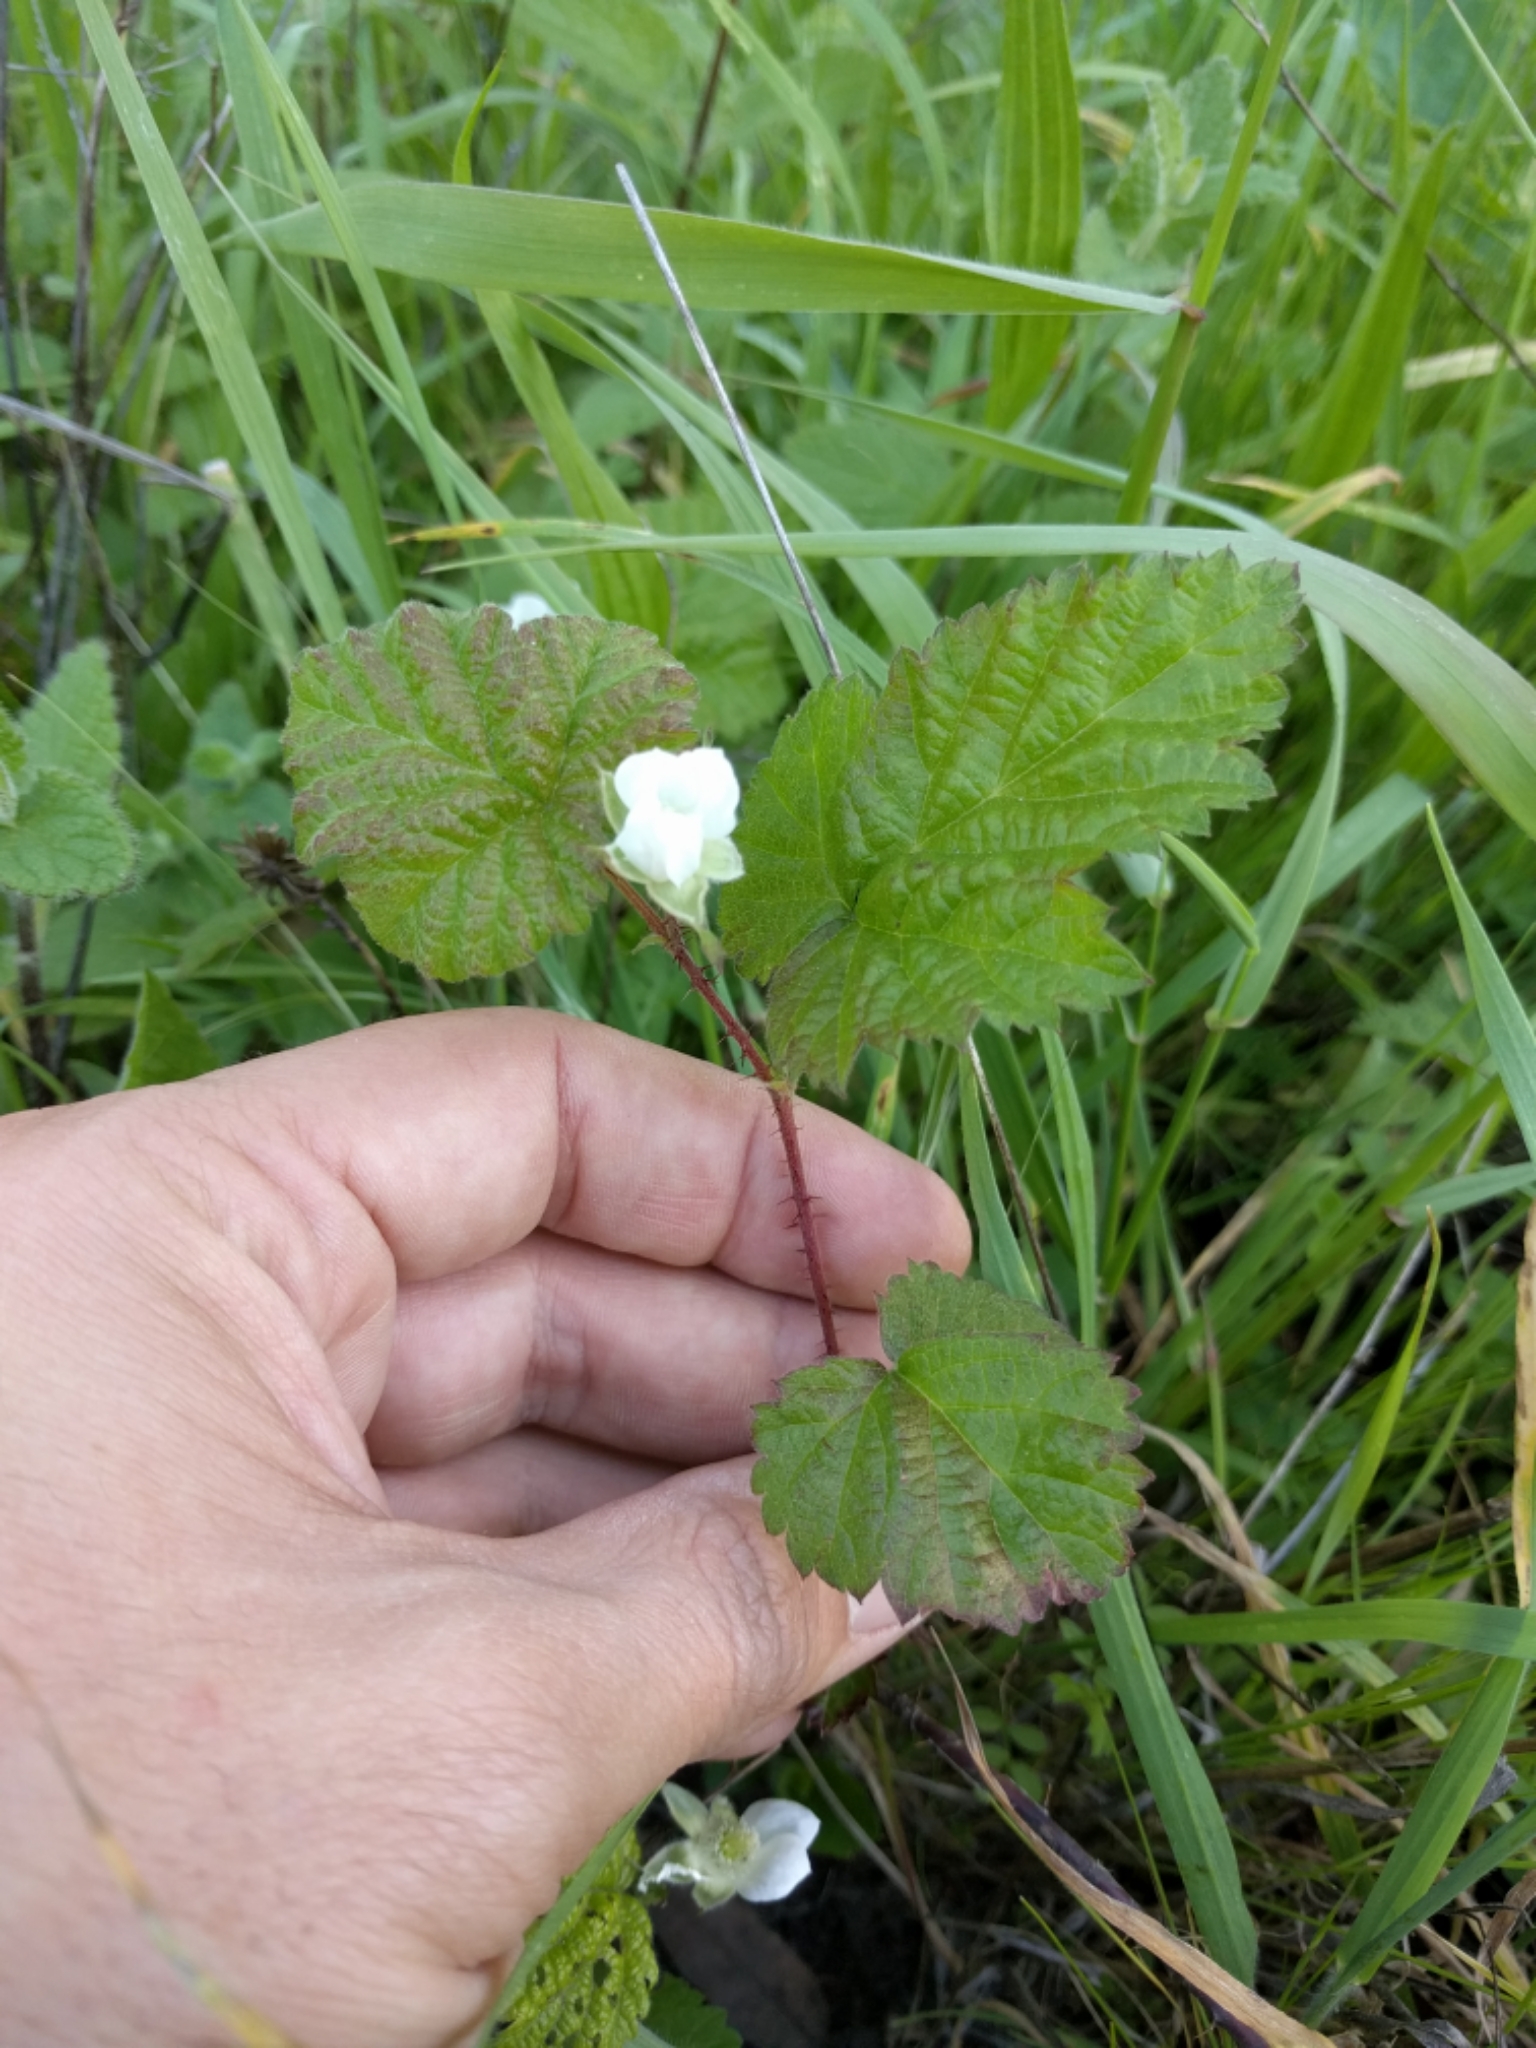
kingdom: Plantae
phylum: Tracheophyta
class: Magnoliopsida
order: Rosales
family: Rosaceae
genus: Rubus
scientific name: Rubus ursinus
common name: Pacific blackberry
